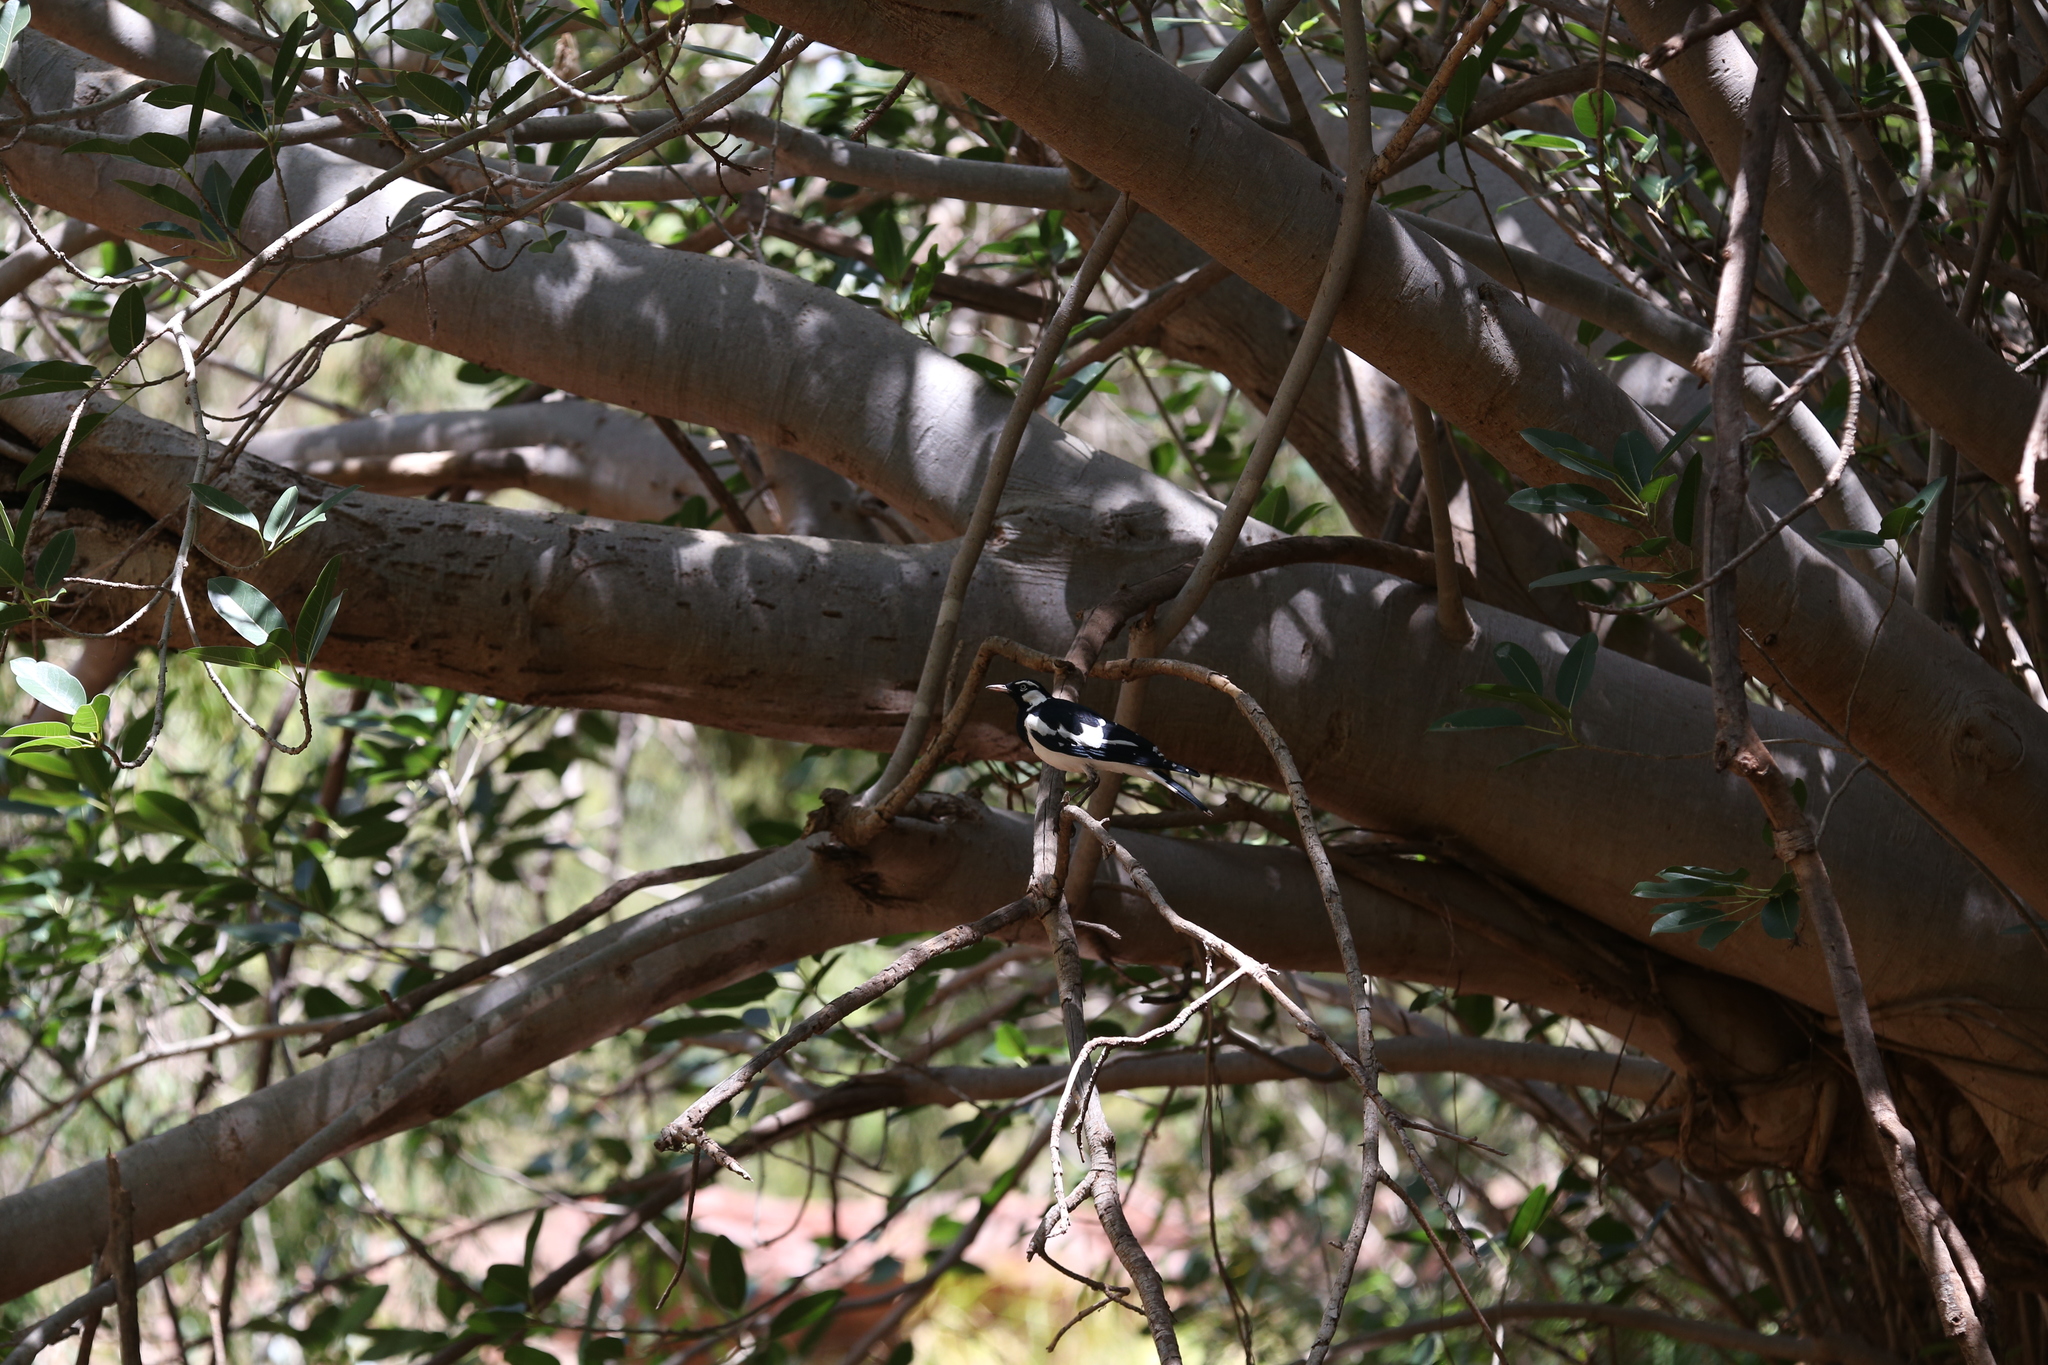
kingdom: Animalia
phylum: Chordata
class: Aves
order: Passeriformes
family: Monarchidae
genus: Grallina
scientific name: Grallina cyanoleuca
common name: Magpie-lark
